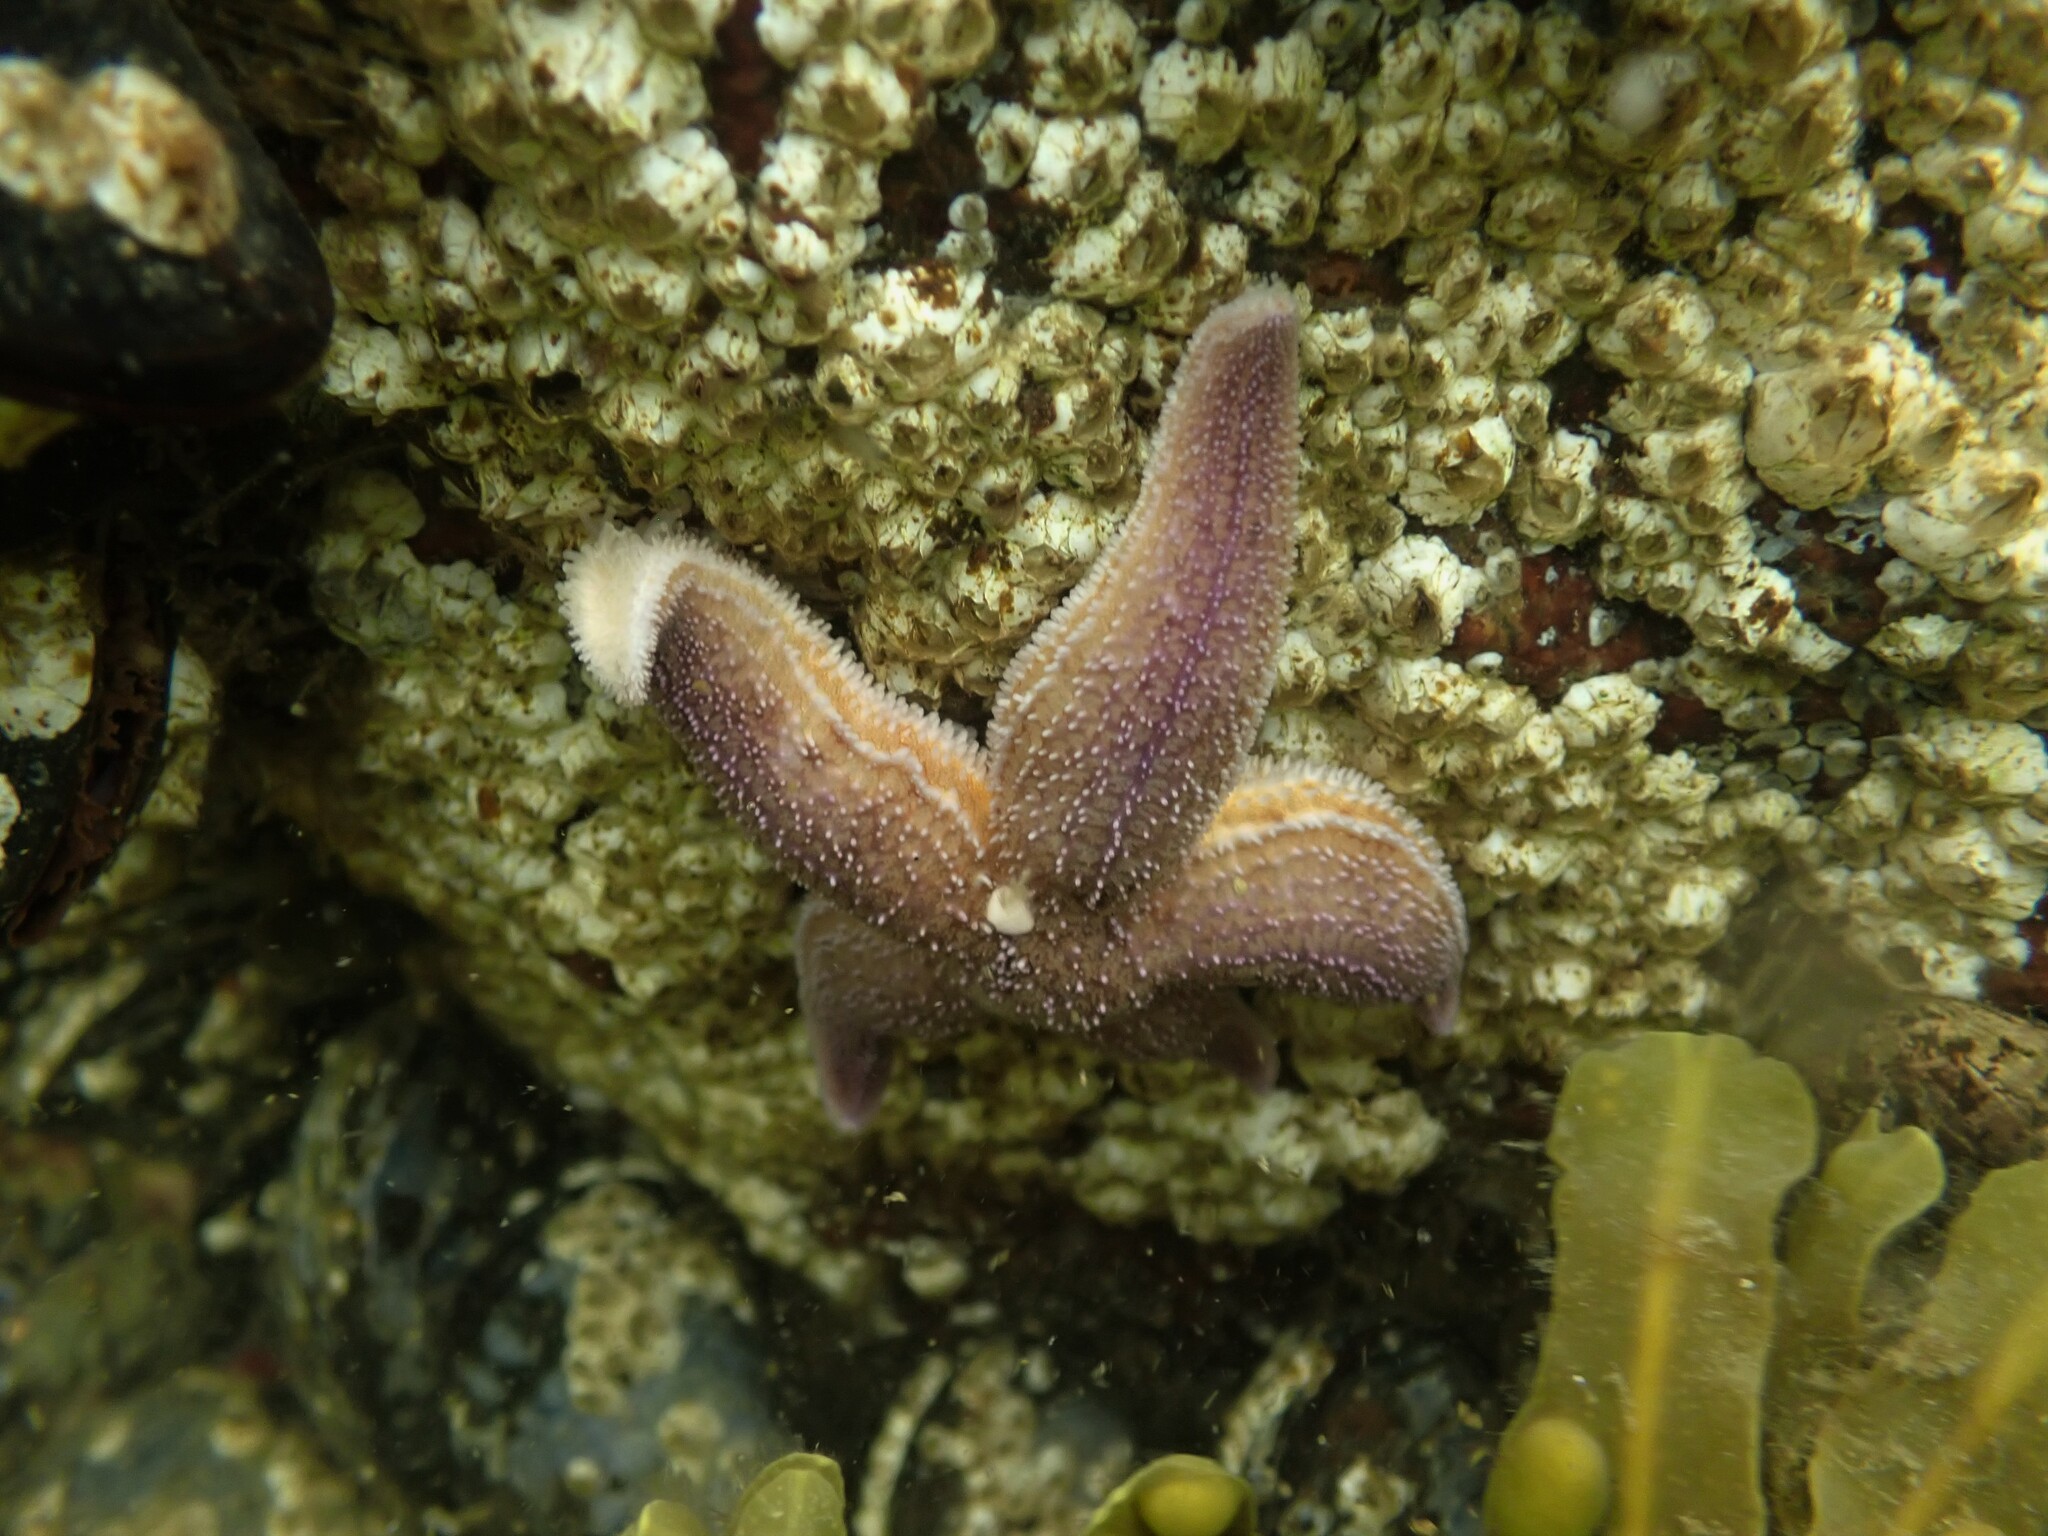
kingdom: Animalia
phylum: Echinodermata
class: Asteroidea
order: Forcipulatida
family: Asteriidae
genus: Asterias
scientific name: Asterias rubens
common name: Common starfish
